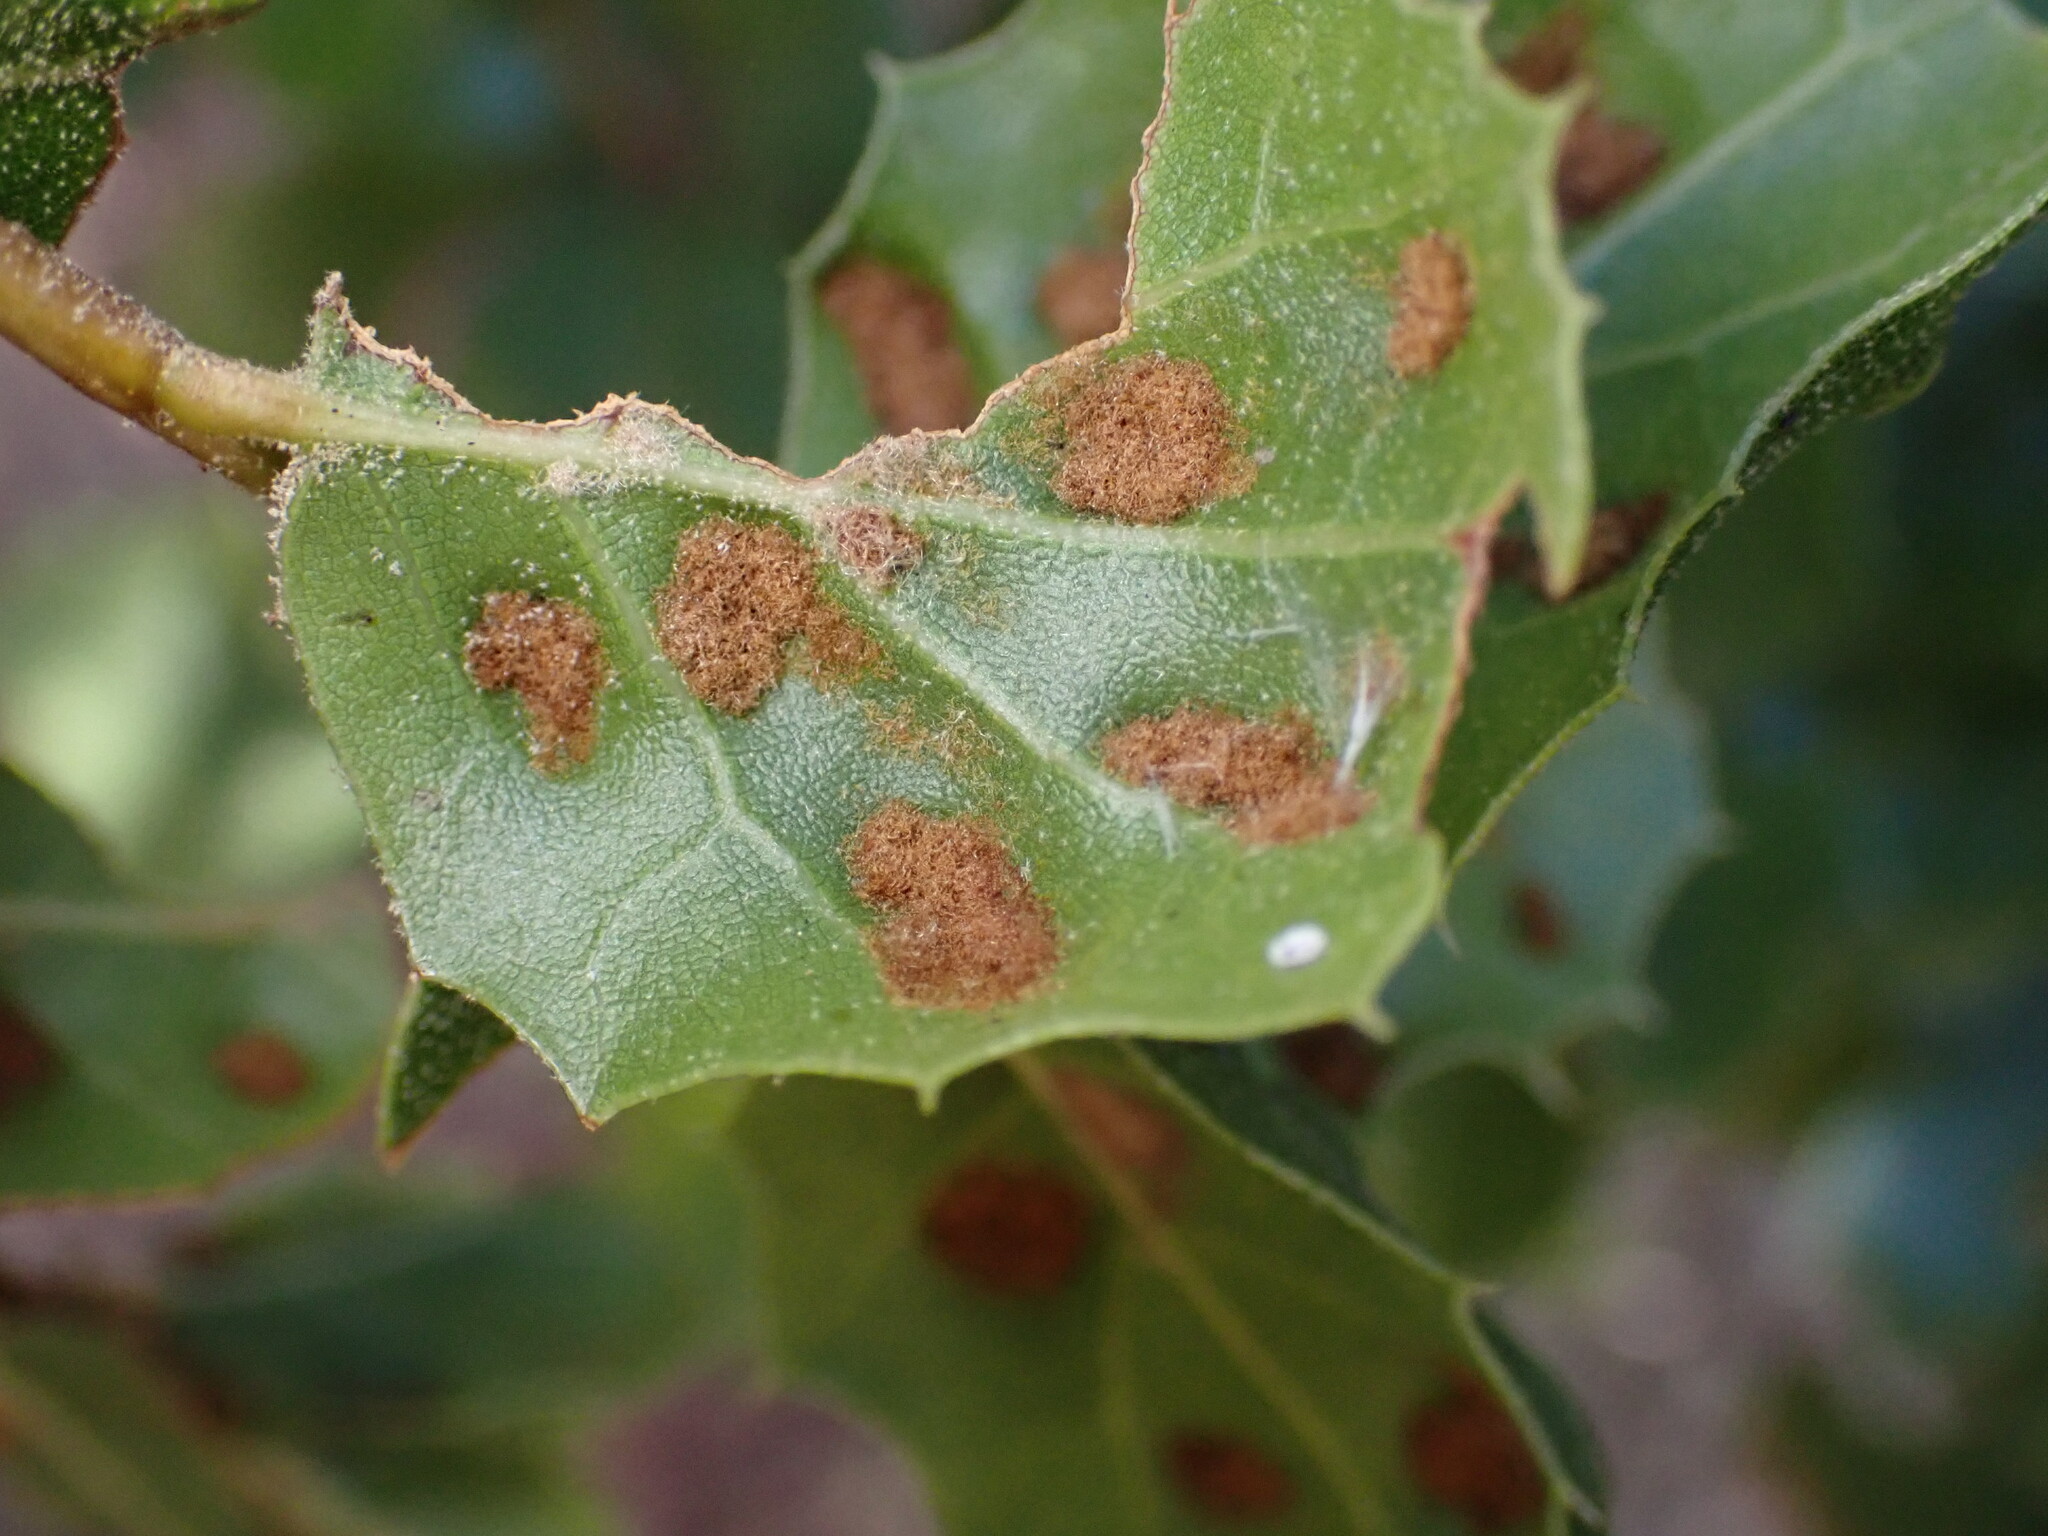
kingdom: Animalia
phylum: Arthropoda
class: Arachnida
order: Trombidiformes
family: Eriophyidae
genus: Aceria
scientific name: Aceria
